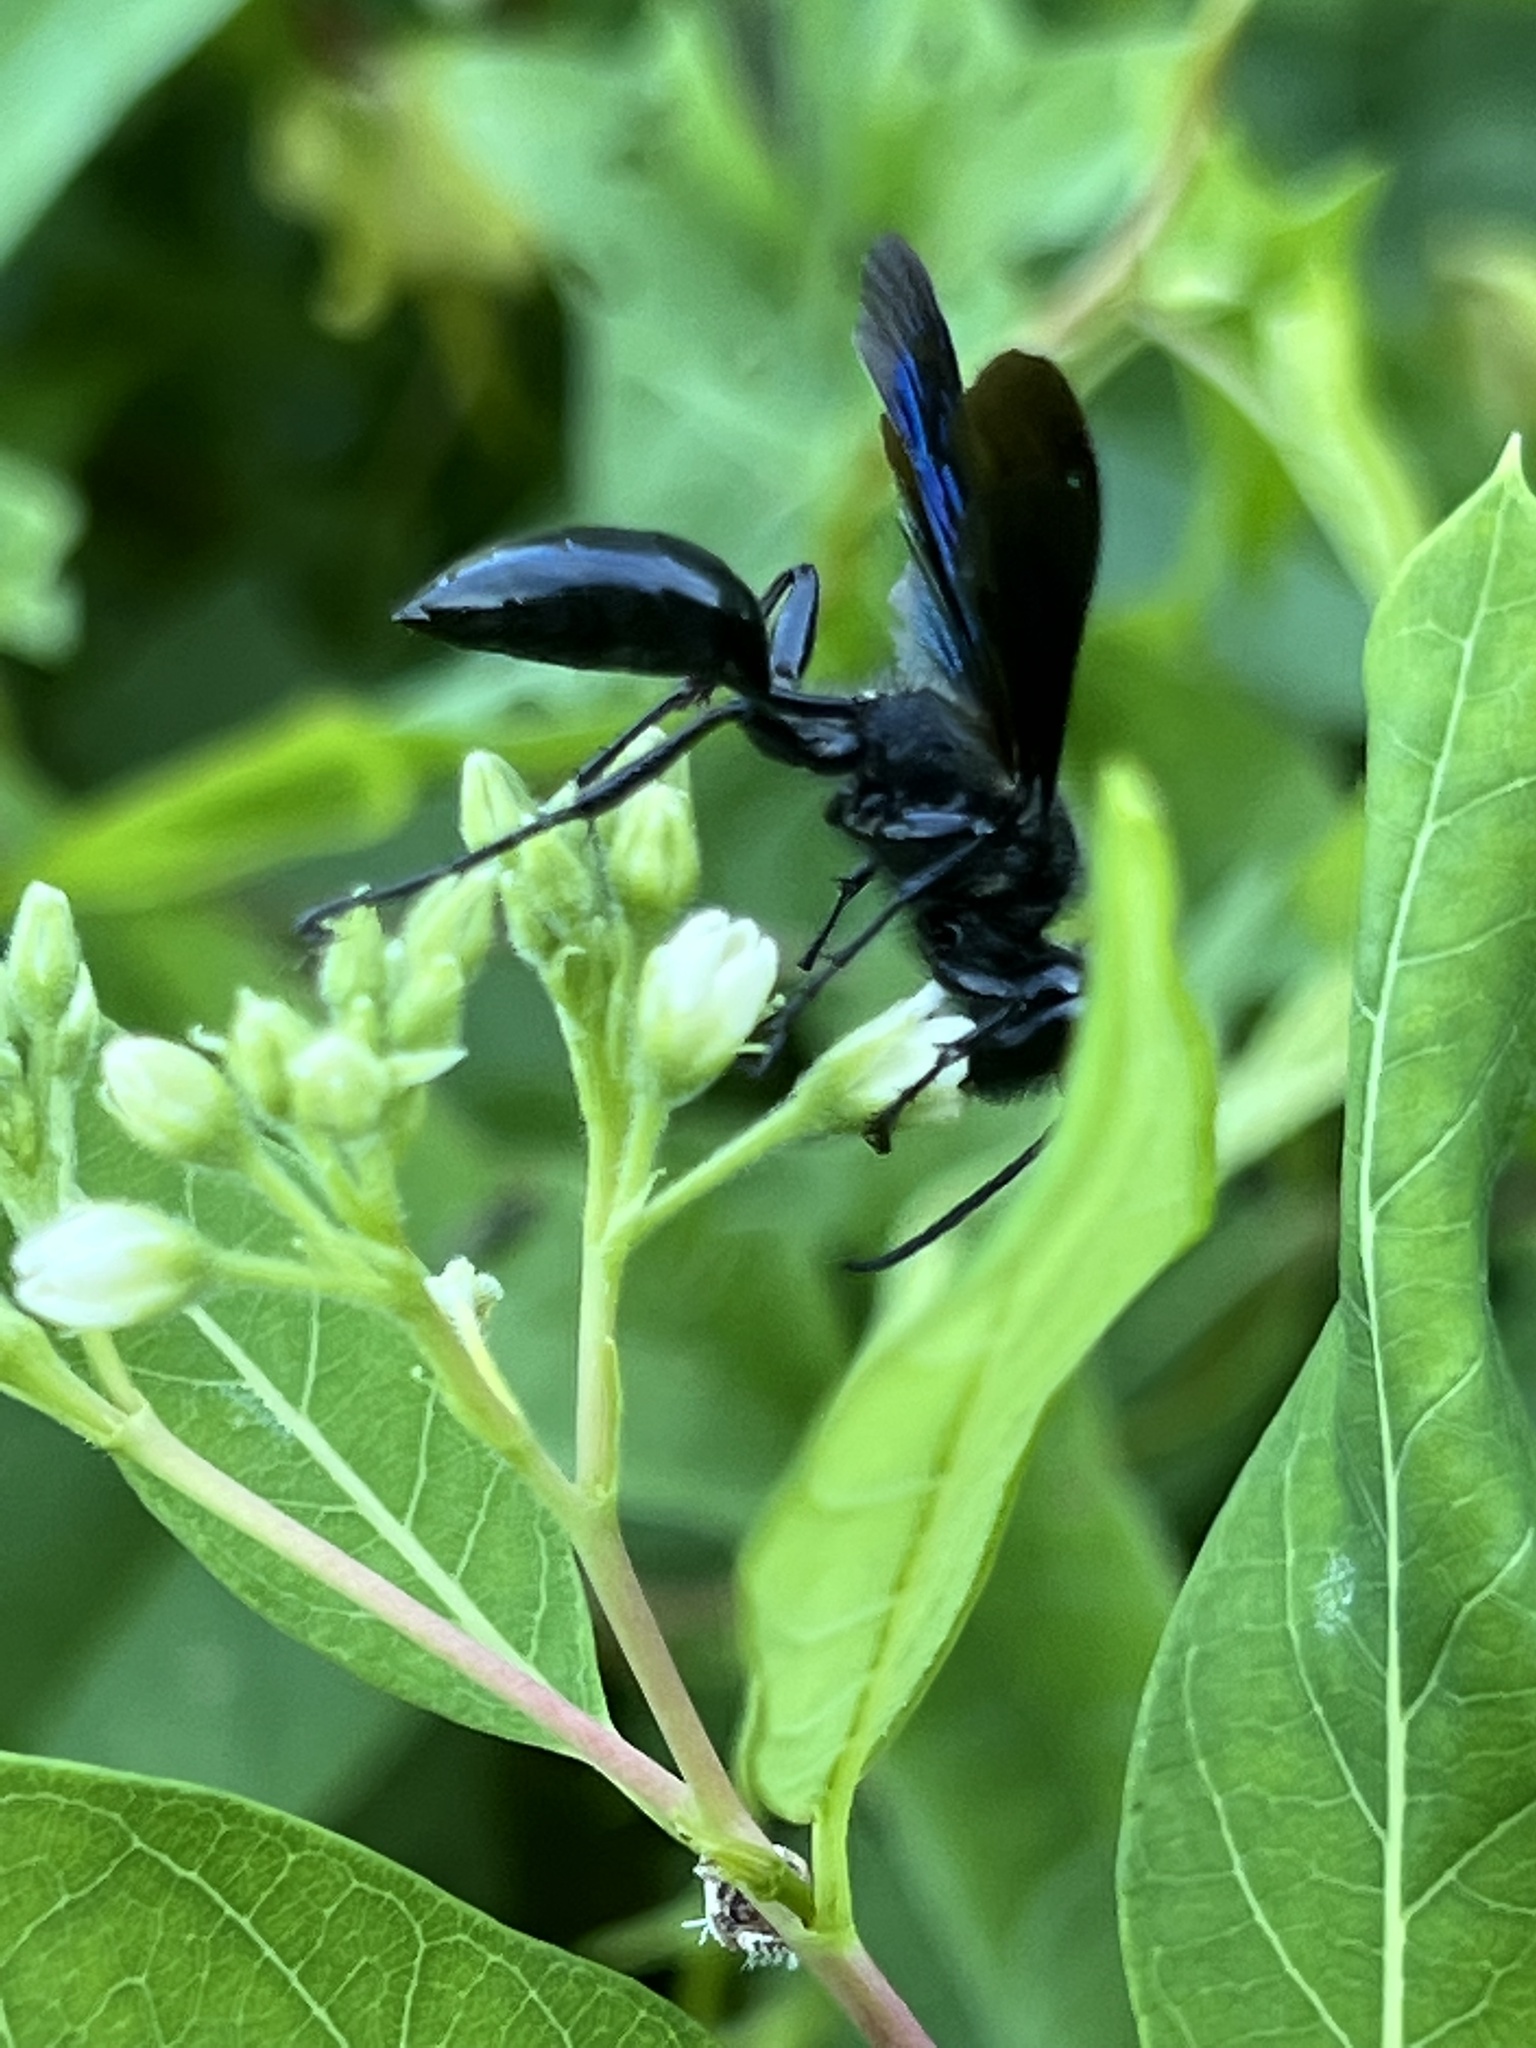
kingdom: Animalia
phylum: Arthropoda
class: Insecta
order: Hymenoptera
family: Sphecidae
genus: Isodontia
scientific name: Isodontia philadelphica
